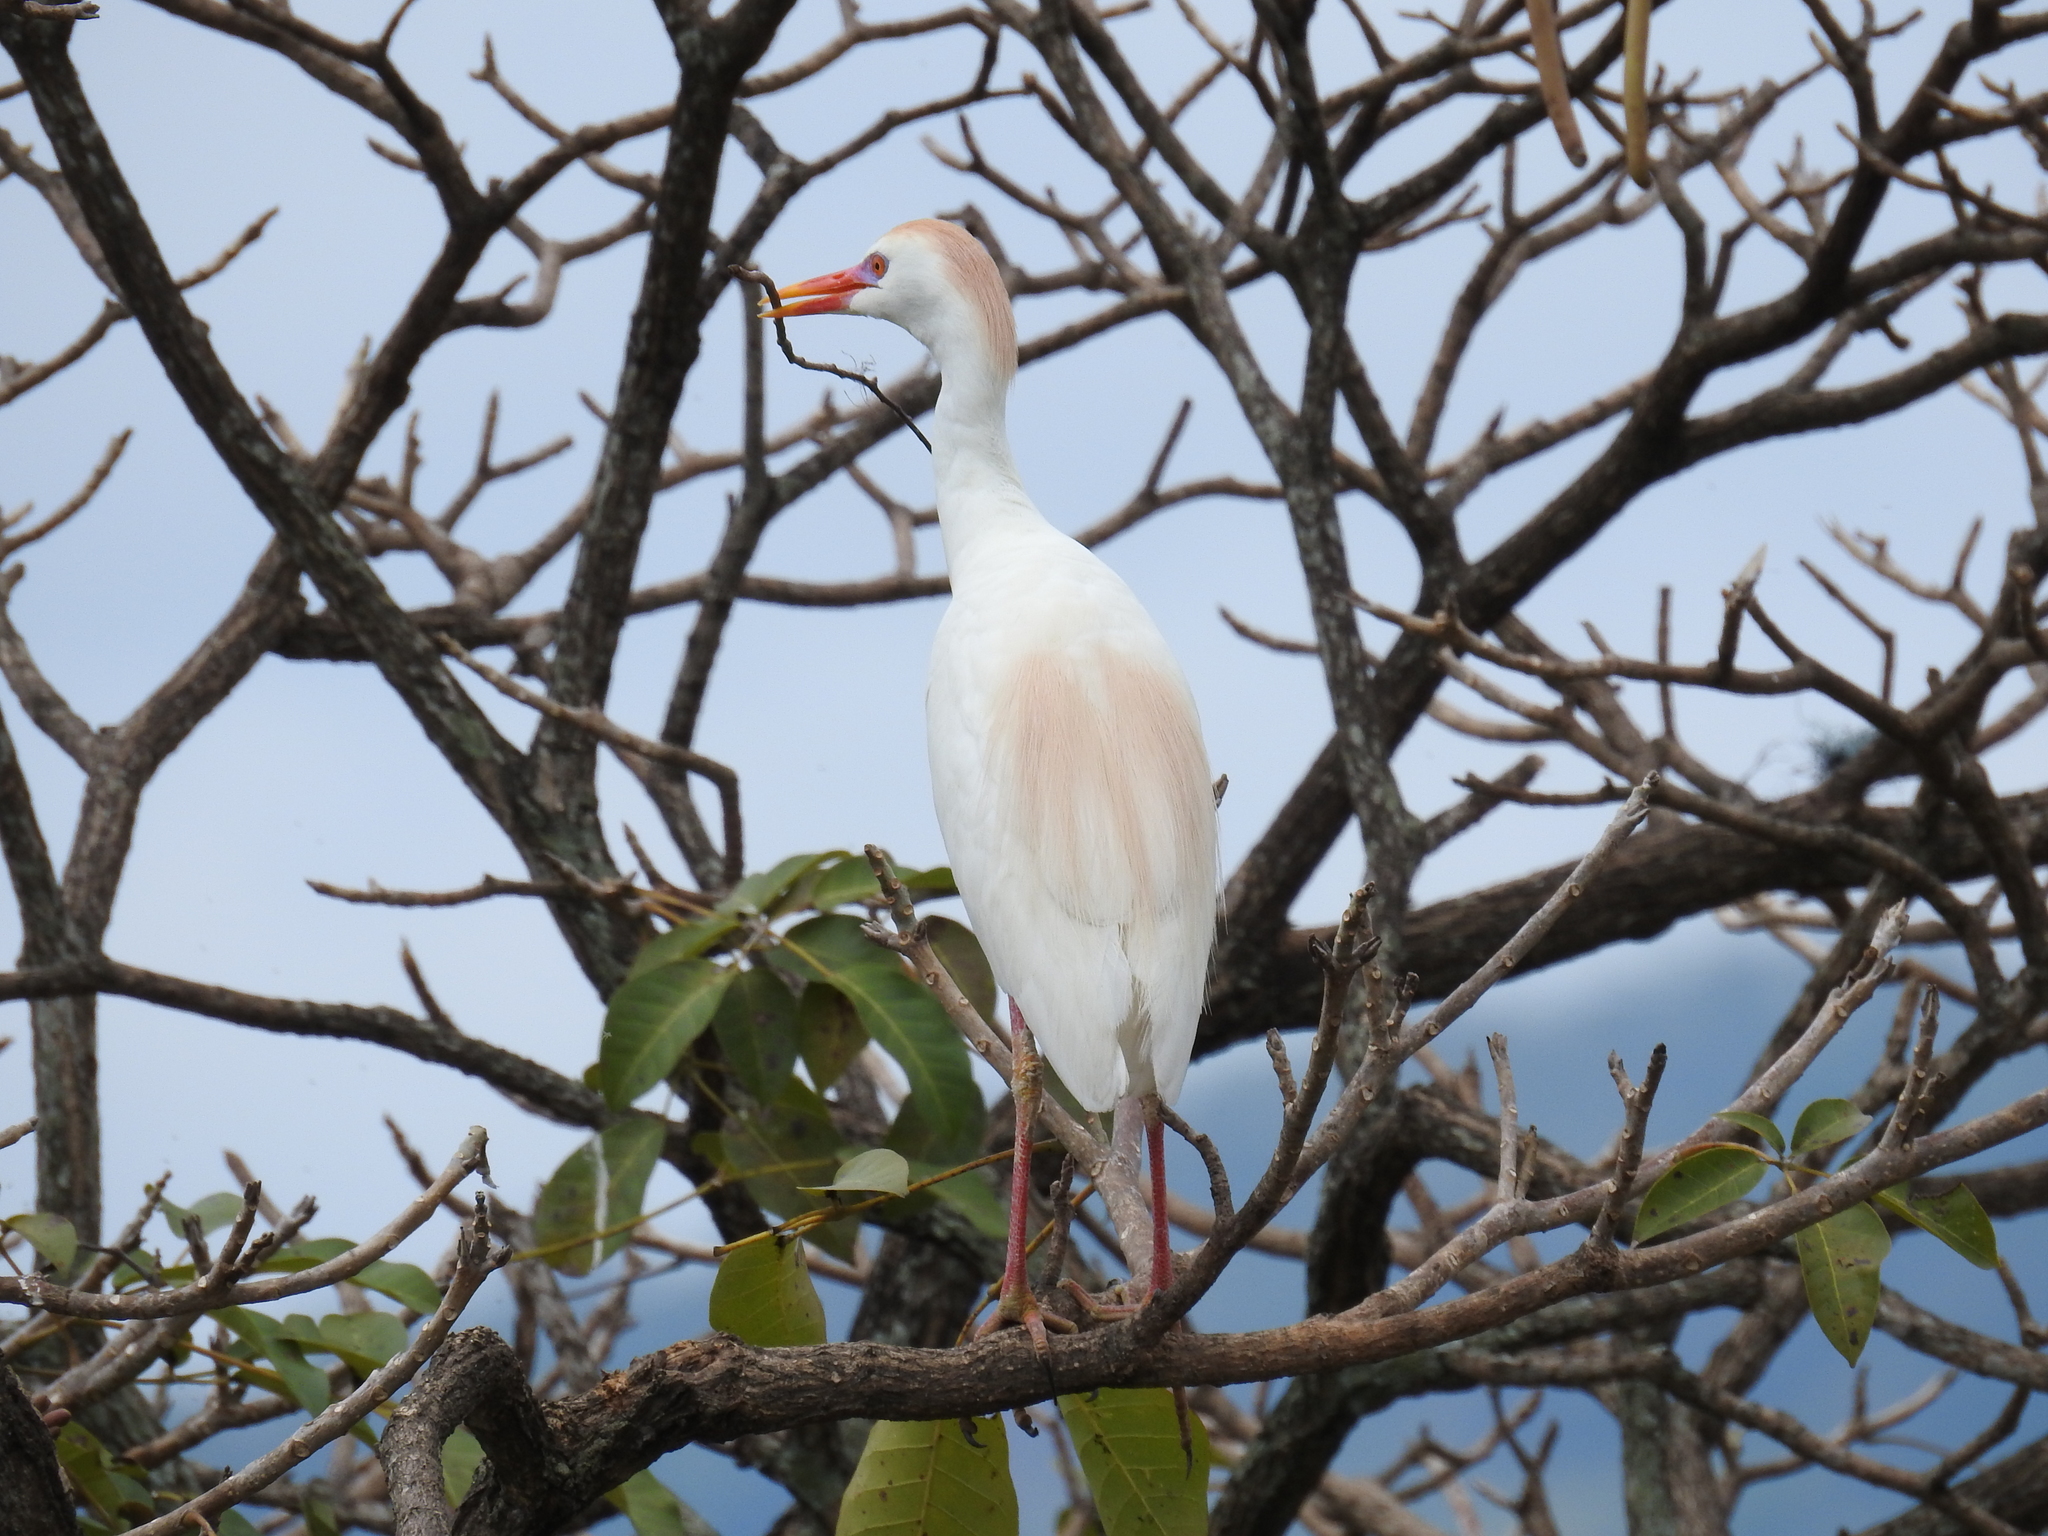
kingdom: Animalia
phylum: Chordata
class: Aves
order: Pelecaniformes
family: Ardeidae
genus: Bubulcus
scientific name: Bubulcus ibis
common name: Cattle egret
